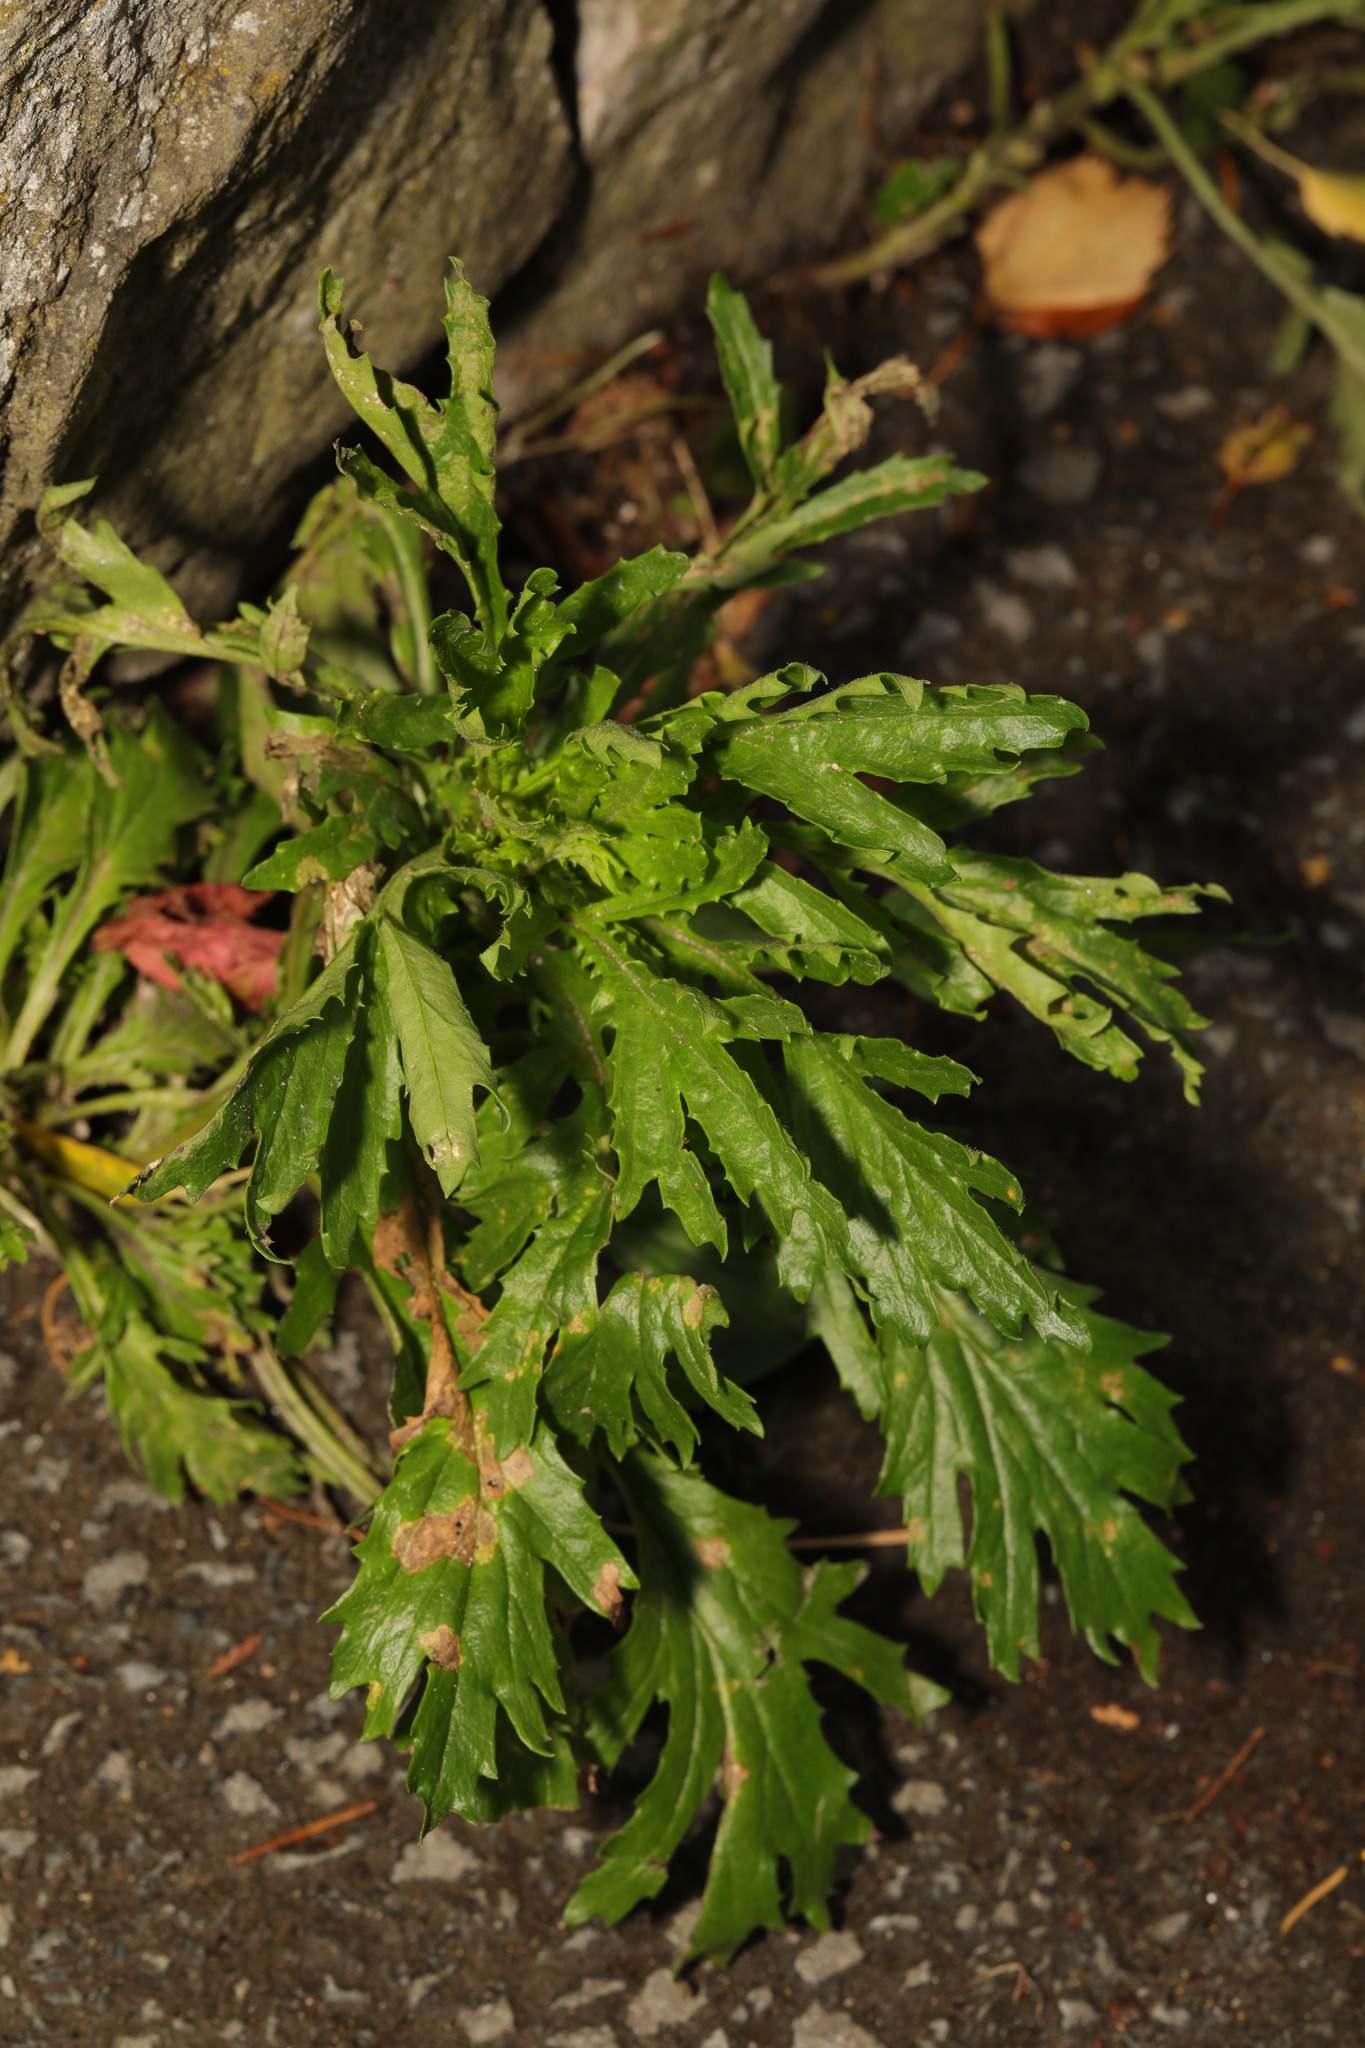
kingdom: Plantae
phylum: Tracheophyta
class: Magnoliopsida
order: Asterales
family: Asteraceae
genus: Senecio
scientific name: Senecio squalidus
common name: Oxford ragwort
